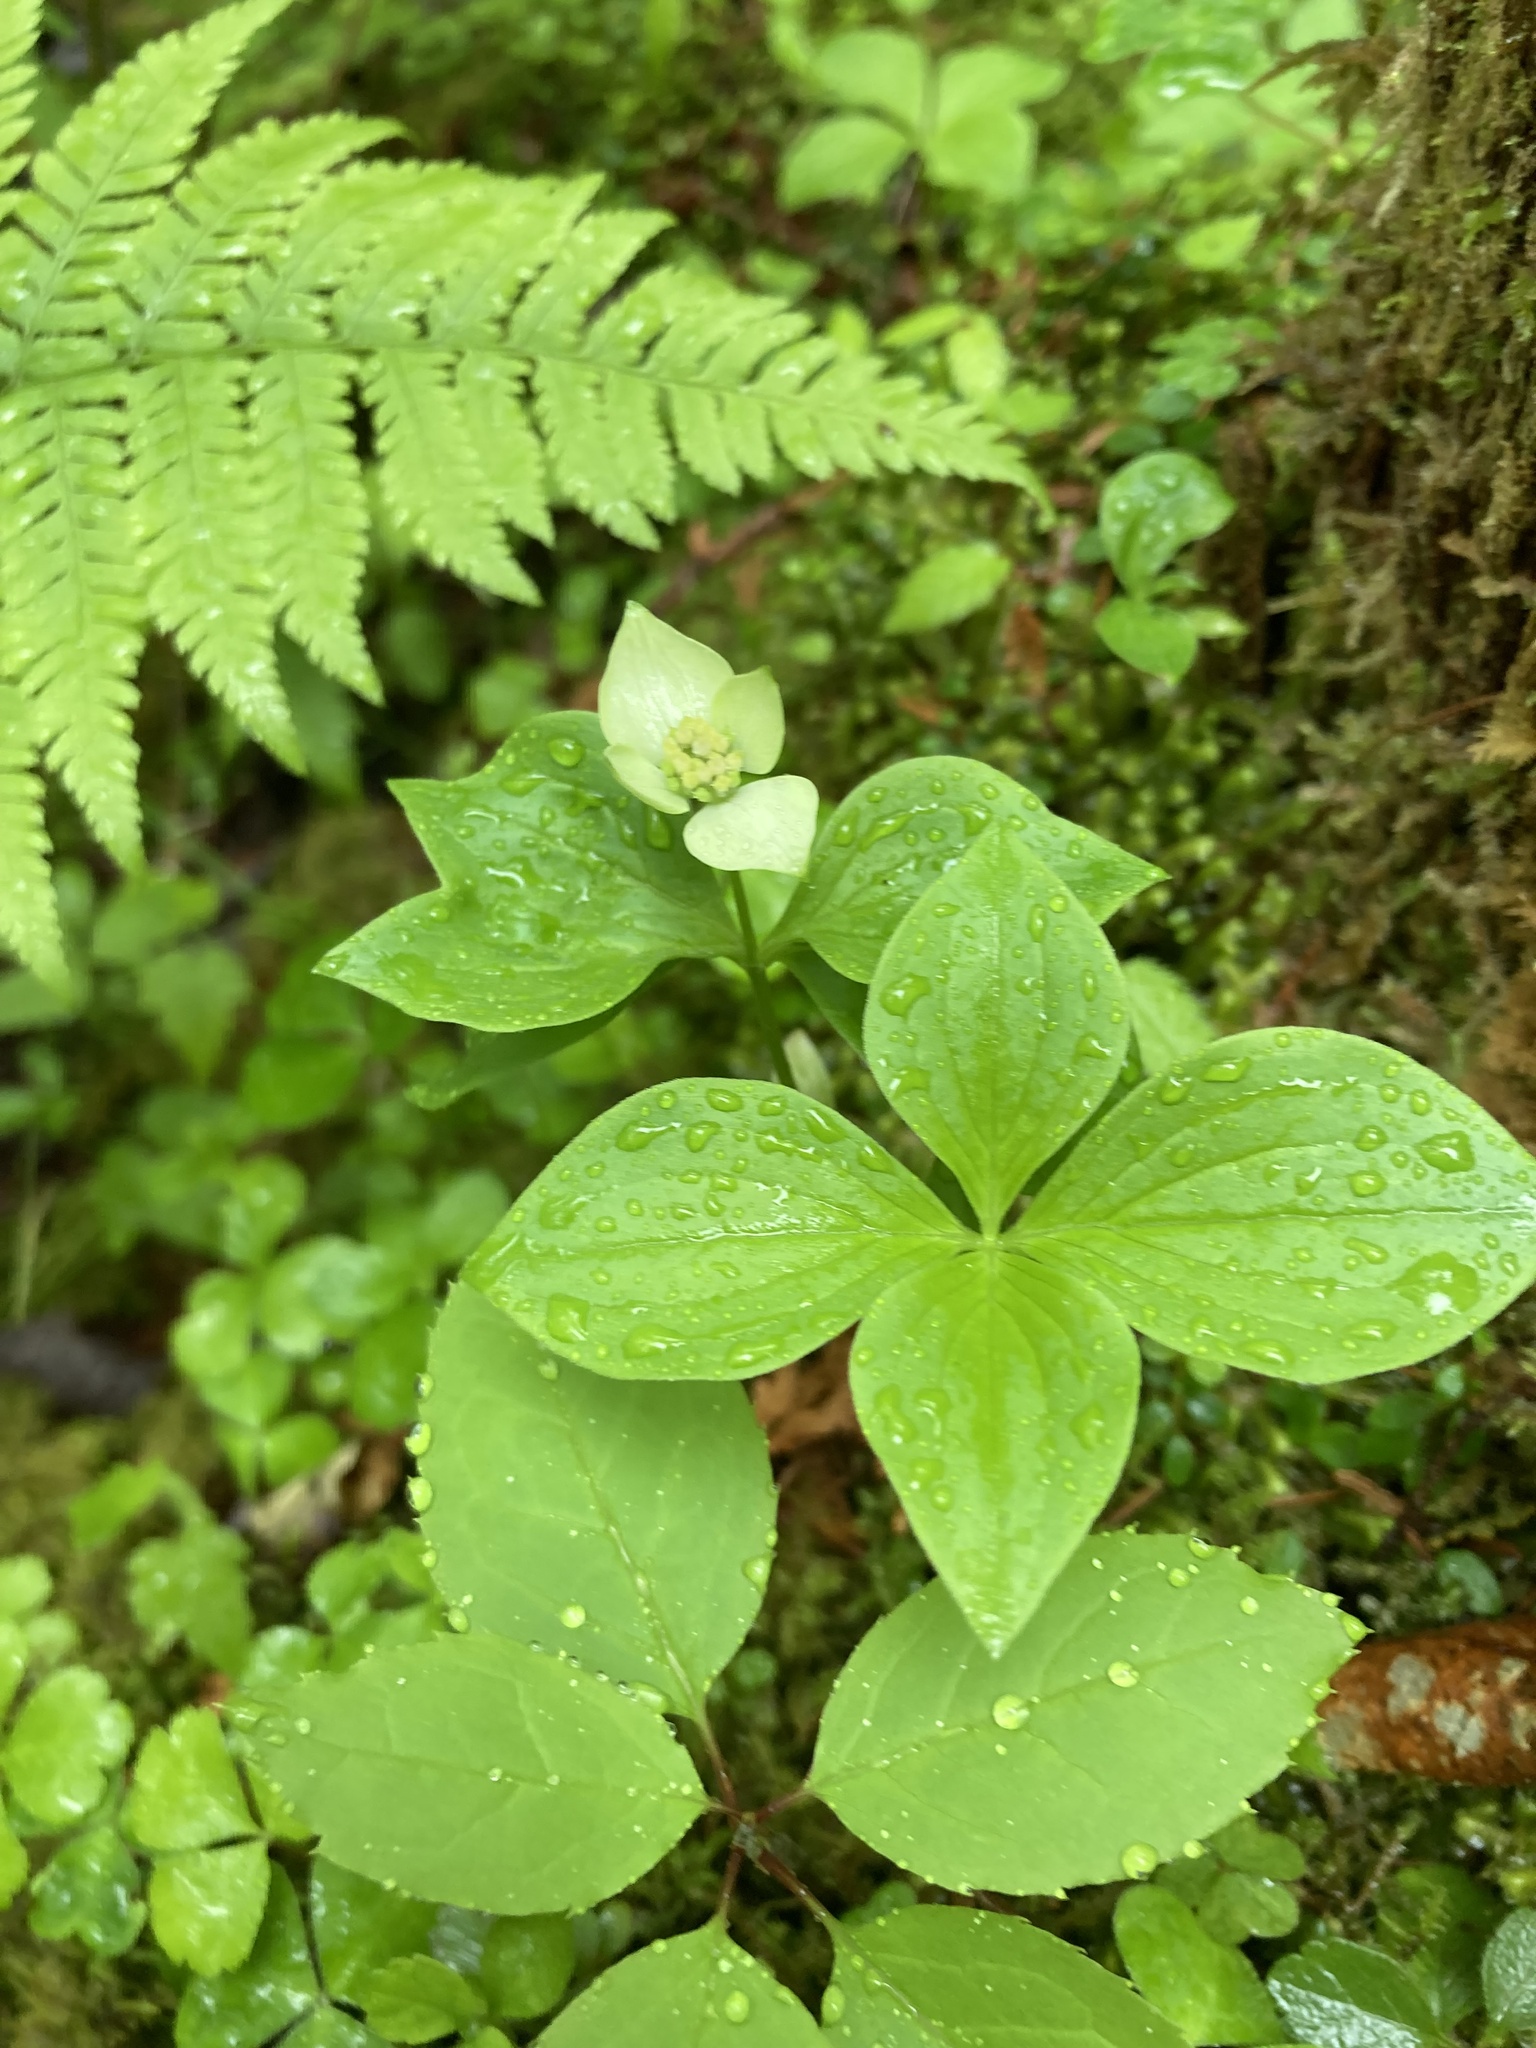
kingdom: Plantae
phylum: Tracheophyta
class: Magnoliopsida
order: Cornales
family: Cornaceae
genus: Cornus
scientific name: Cornus canadensis
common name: Creeping dogwood
